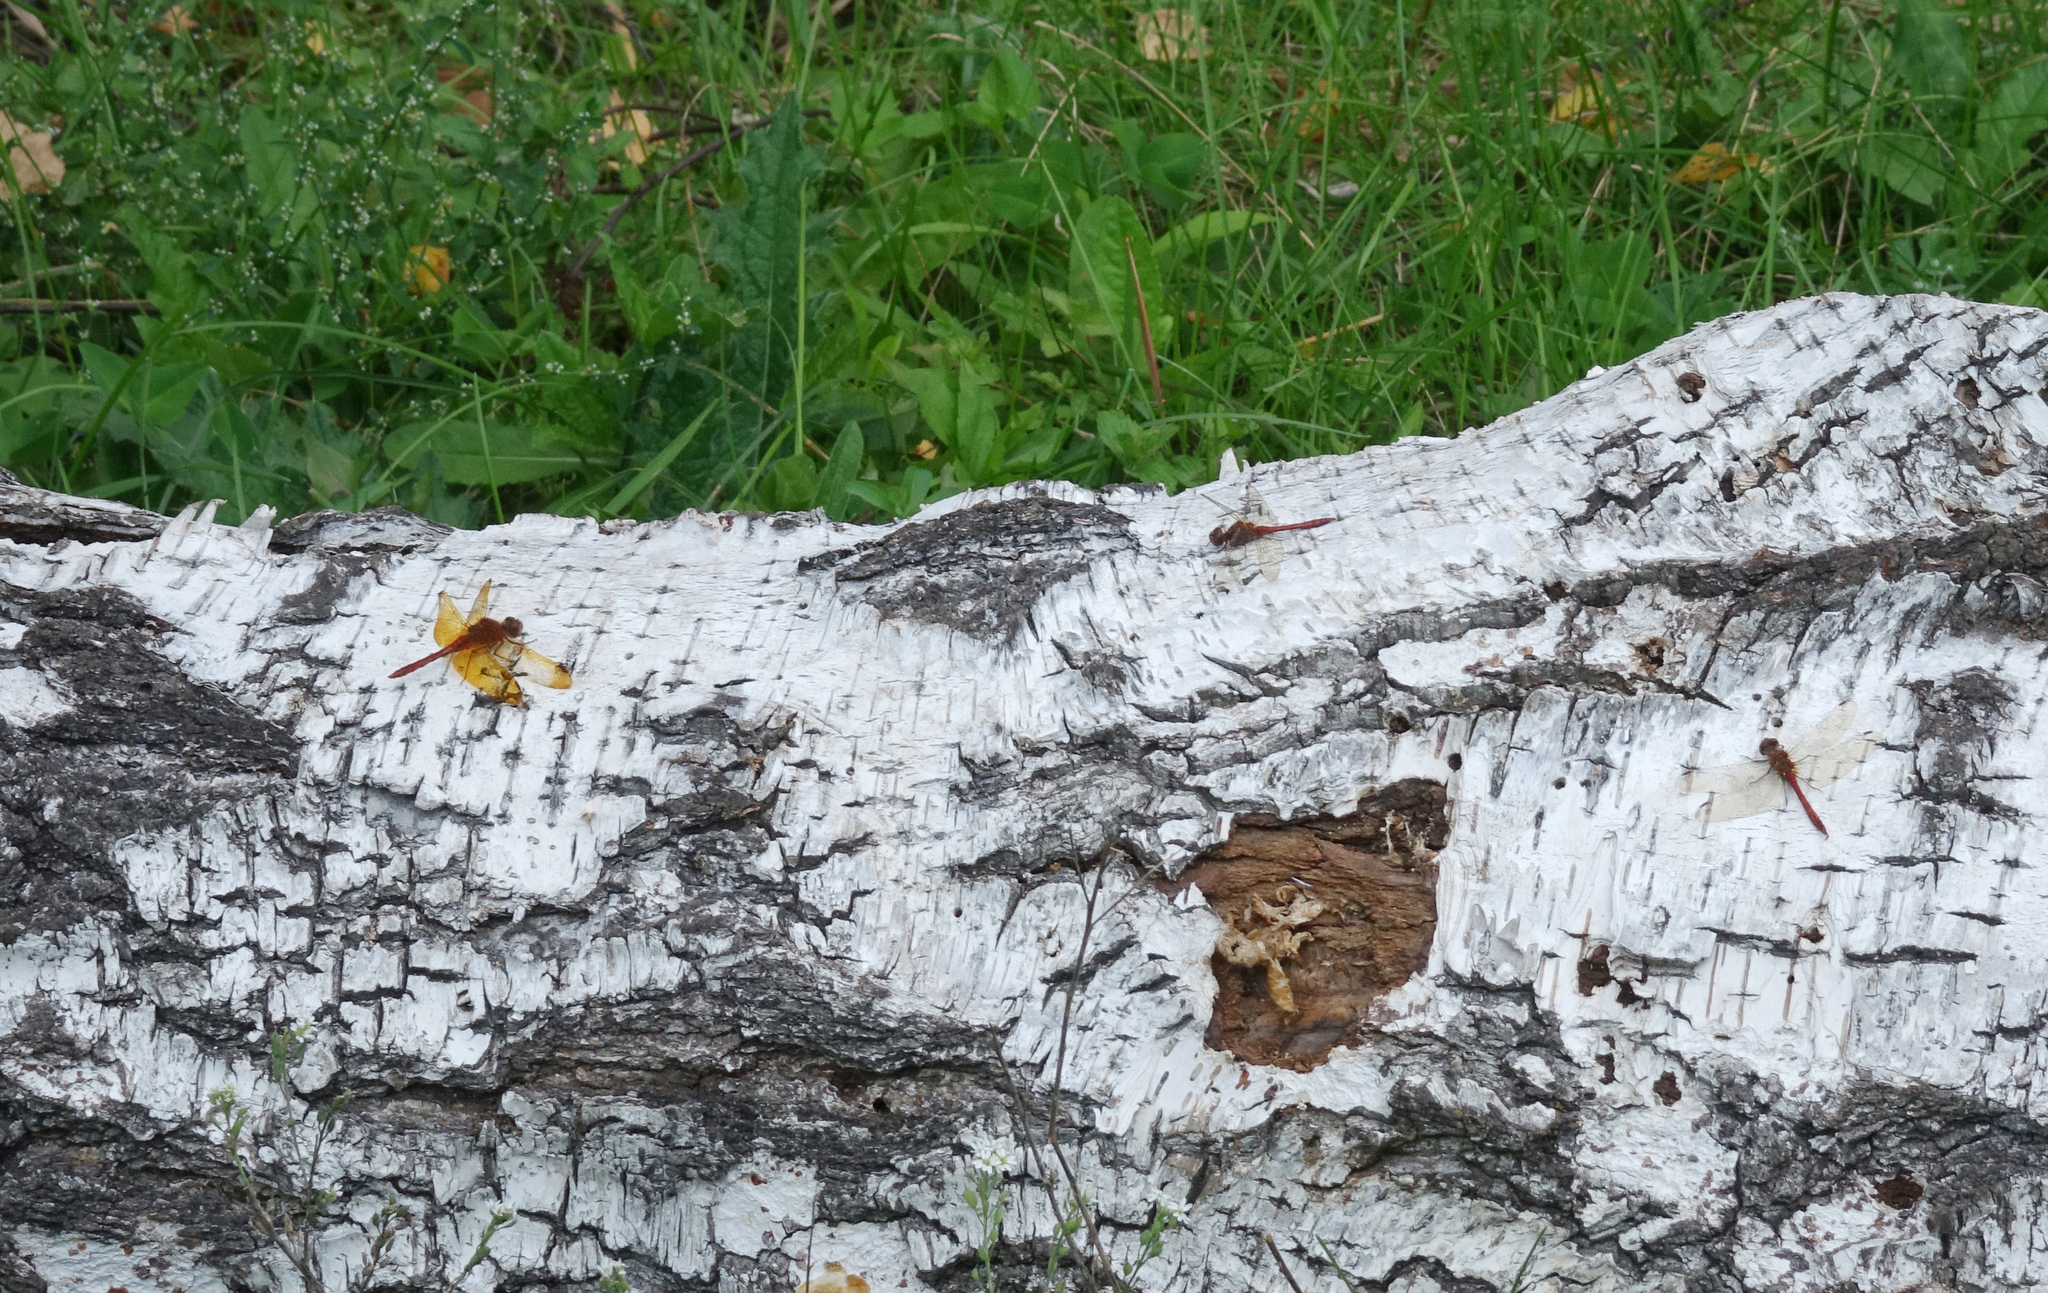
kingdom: Animalia
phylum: Arthropoda
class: Insecta
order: Odonata
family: Libellulidae
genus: Sympetrum
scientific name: Sympetrum vulgatum
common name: Vagrant darter
